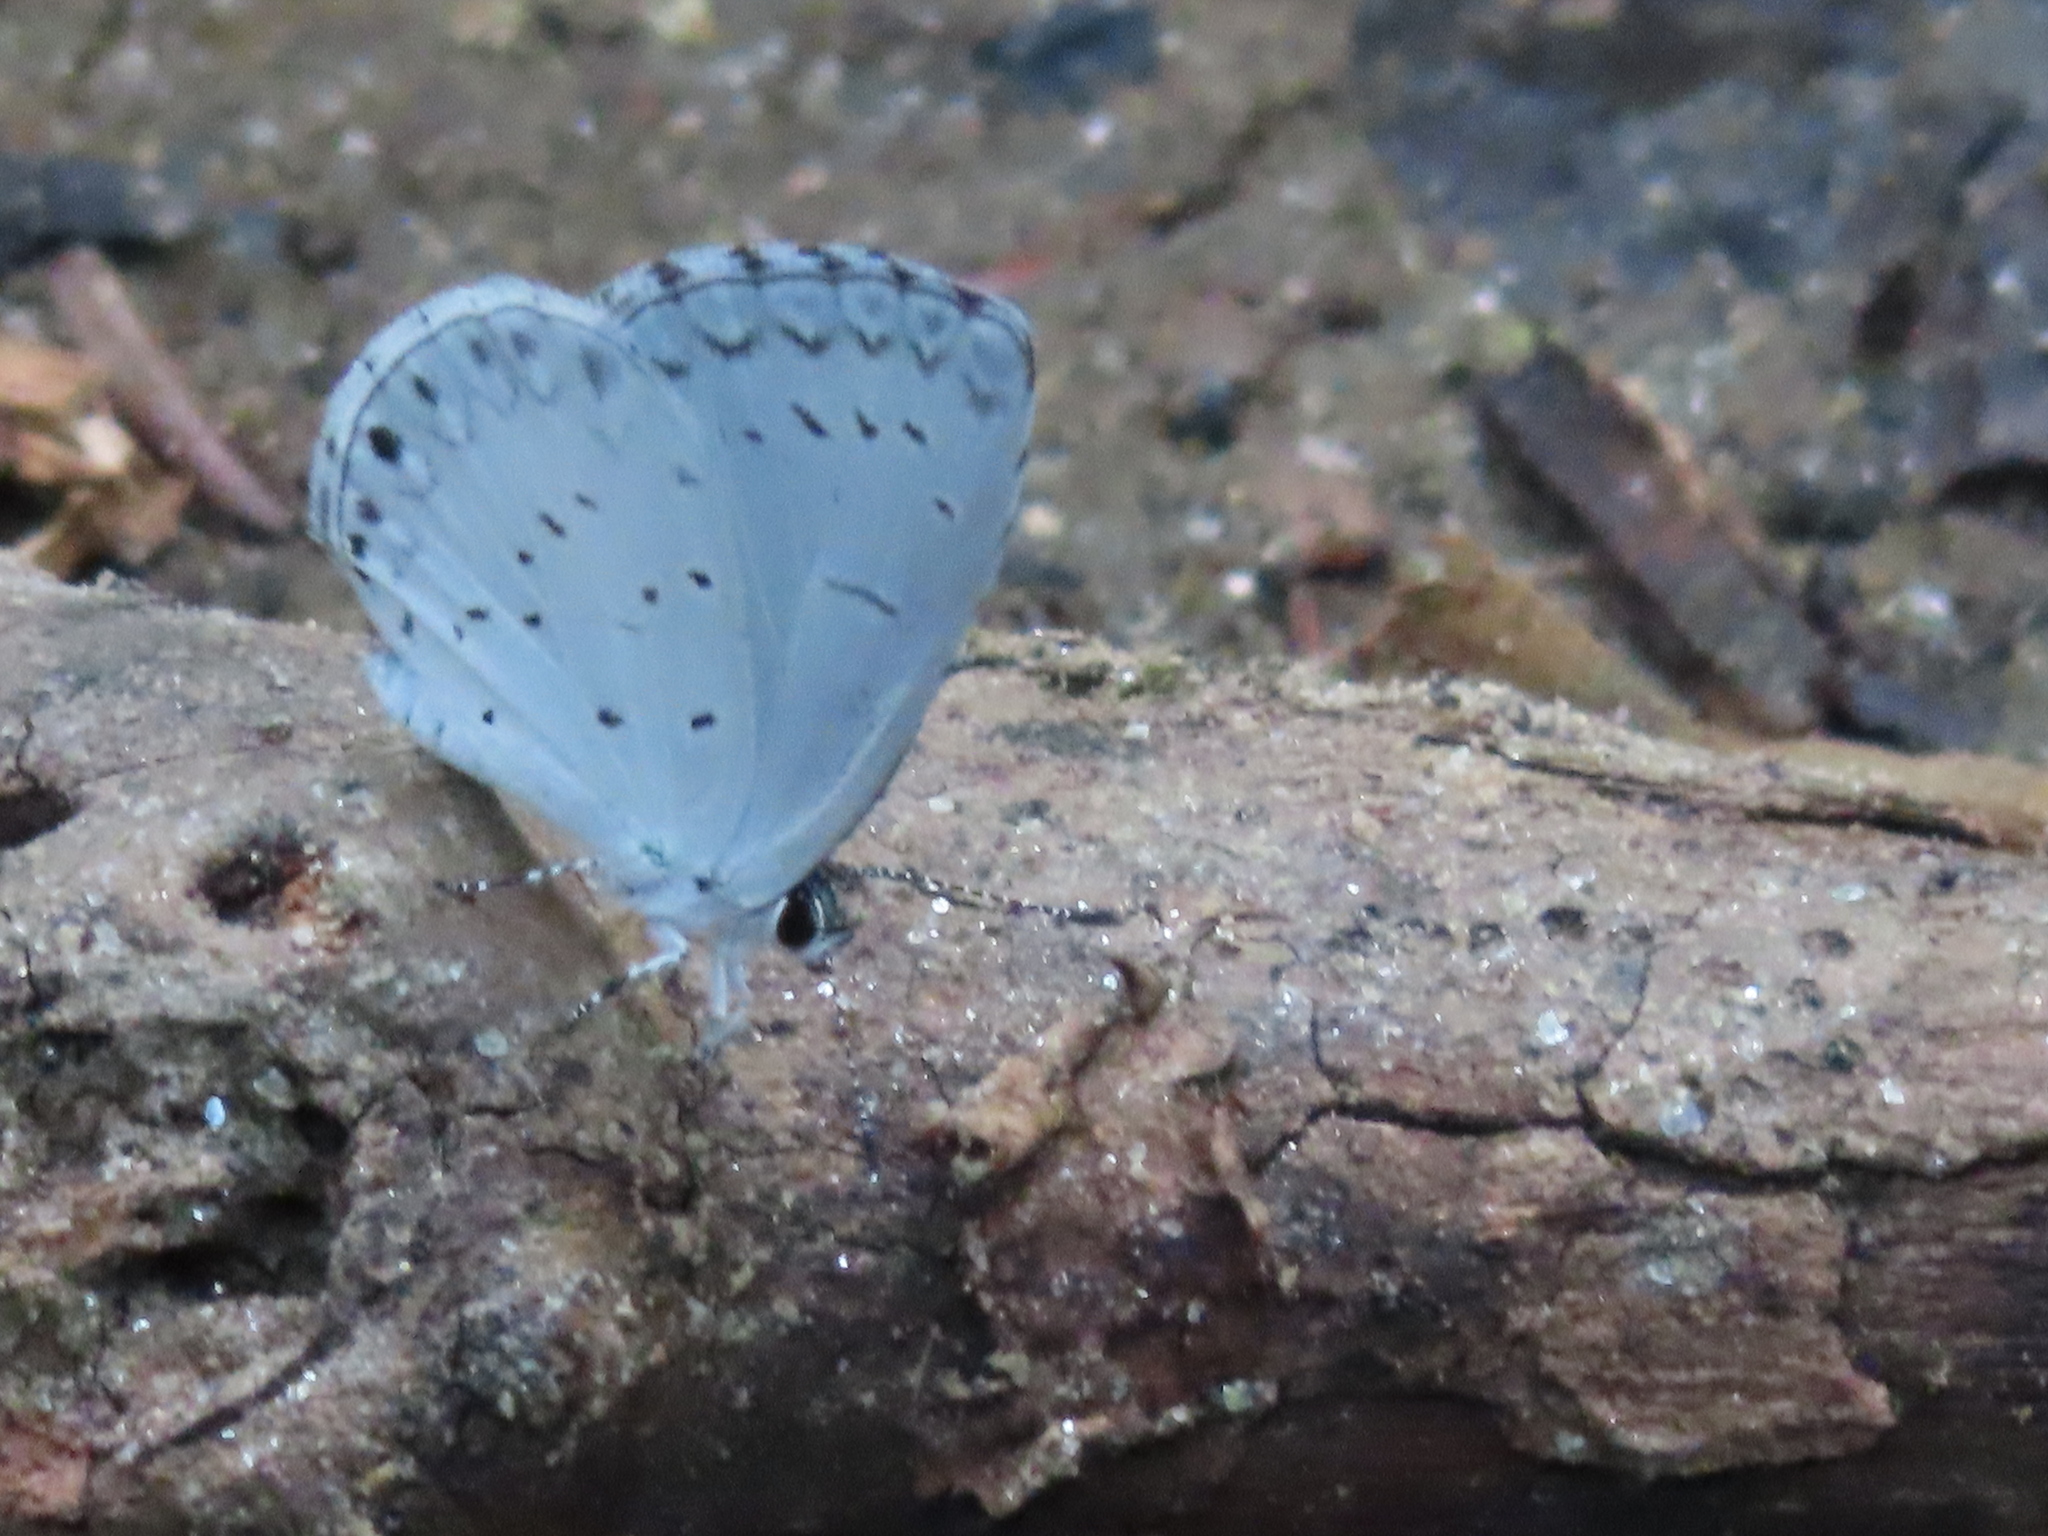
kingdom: Animalia
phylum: Arthropoda
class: Insecta
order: Lepidoptera
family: Lycaenidae
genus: Cyaniris
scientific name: Cyaniris neglecta
